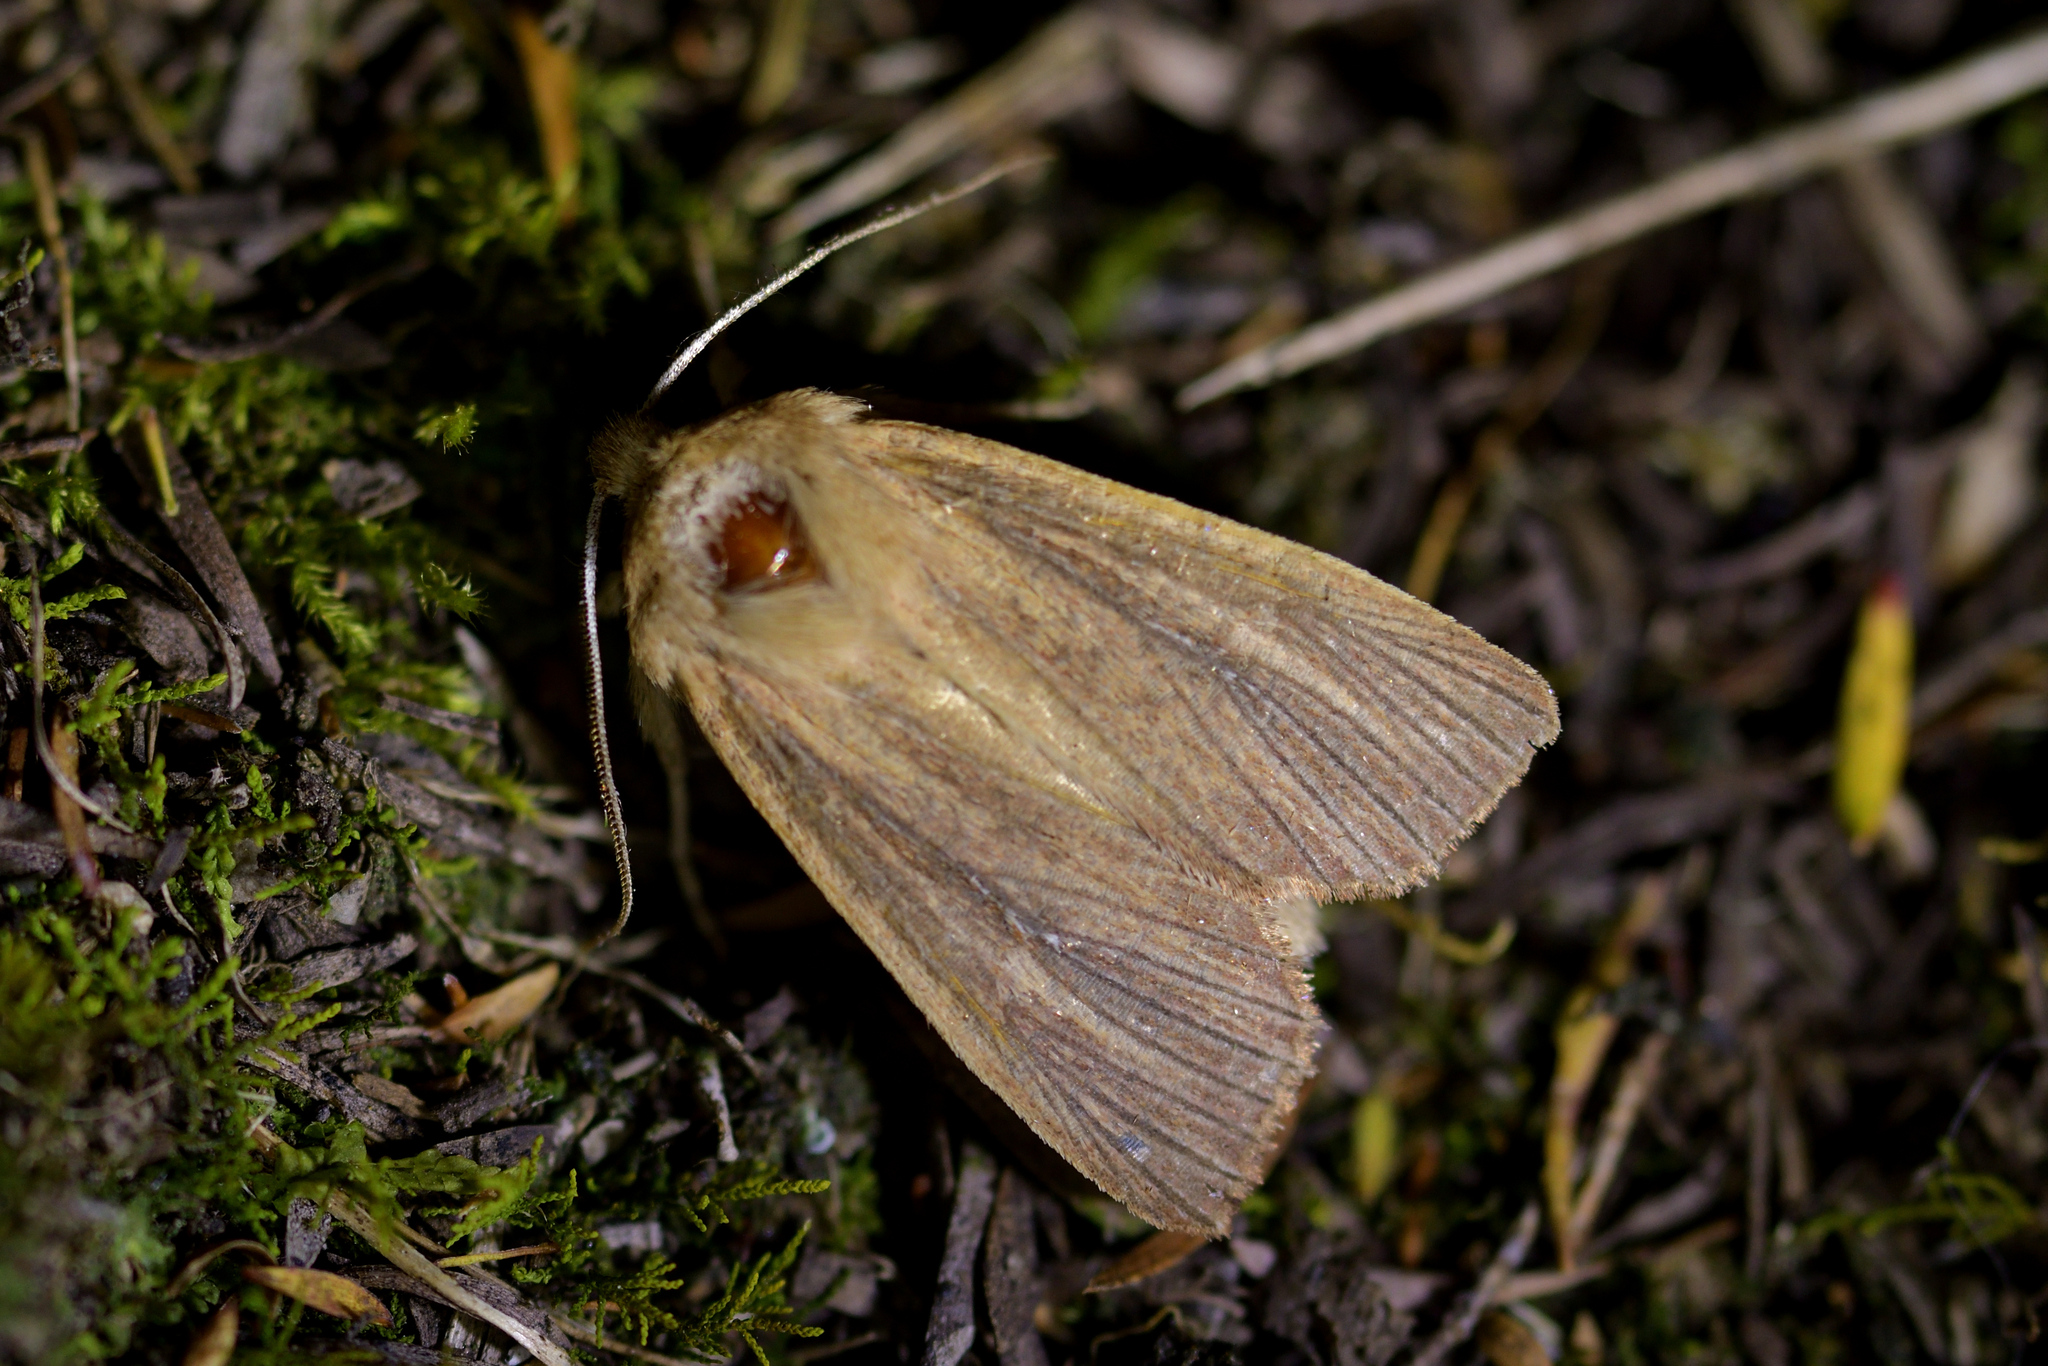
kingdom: Animalia
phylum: Arthropoda
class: Insecta
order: Lepidoptera
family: Noctuidae
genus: Ichneutica
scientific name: Ichneutica arotis
